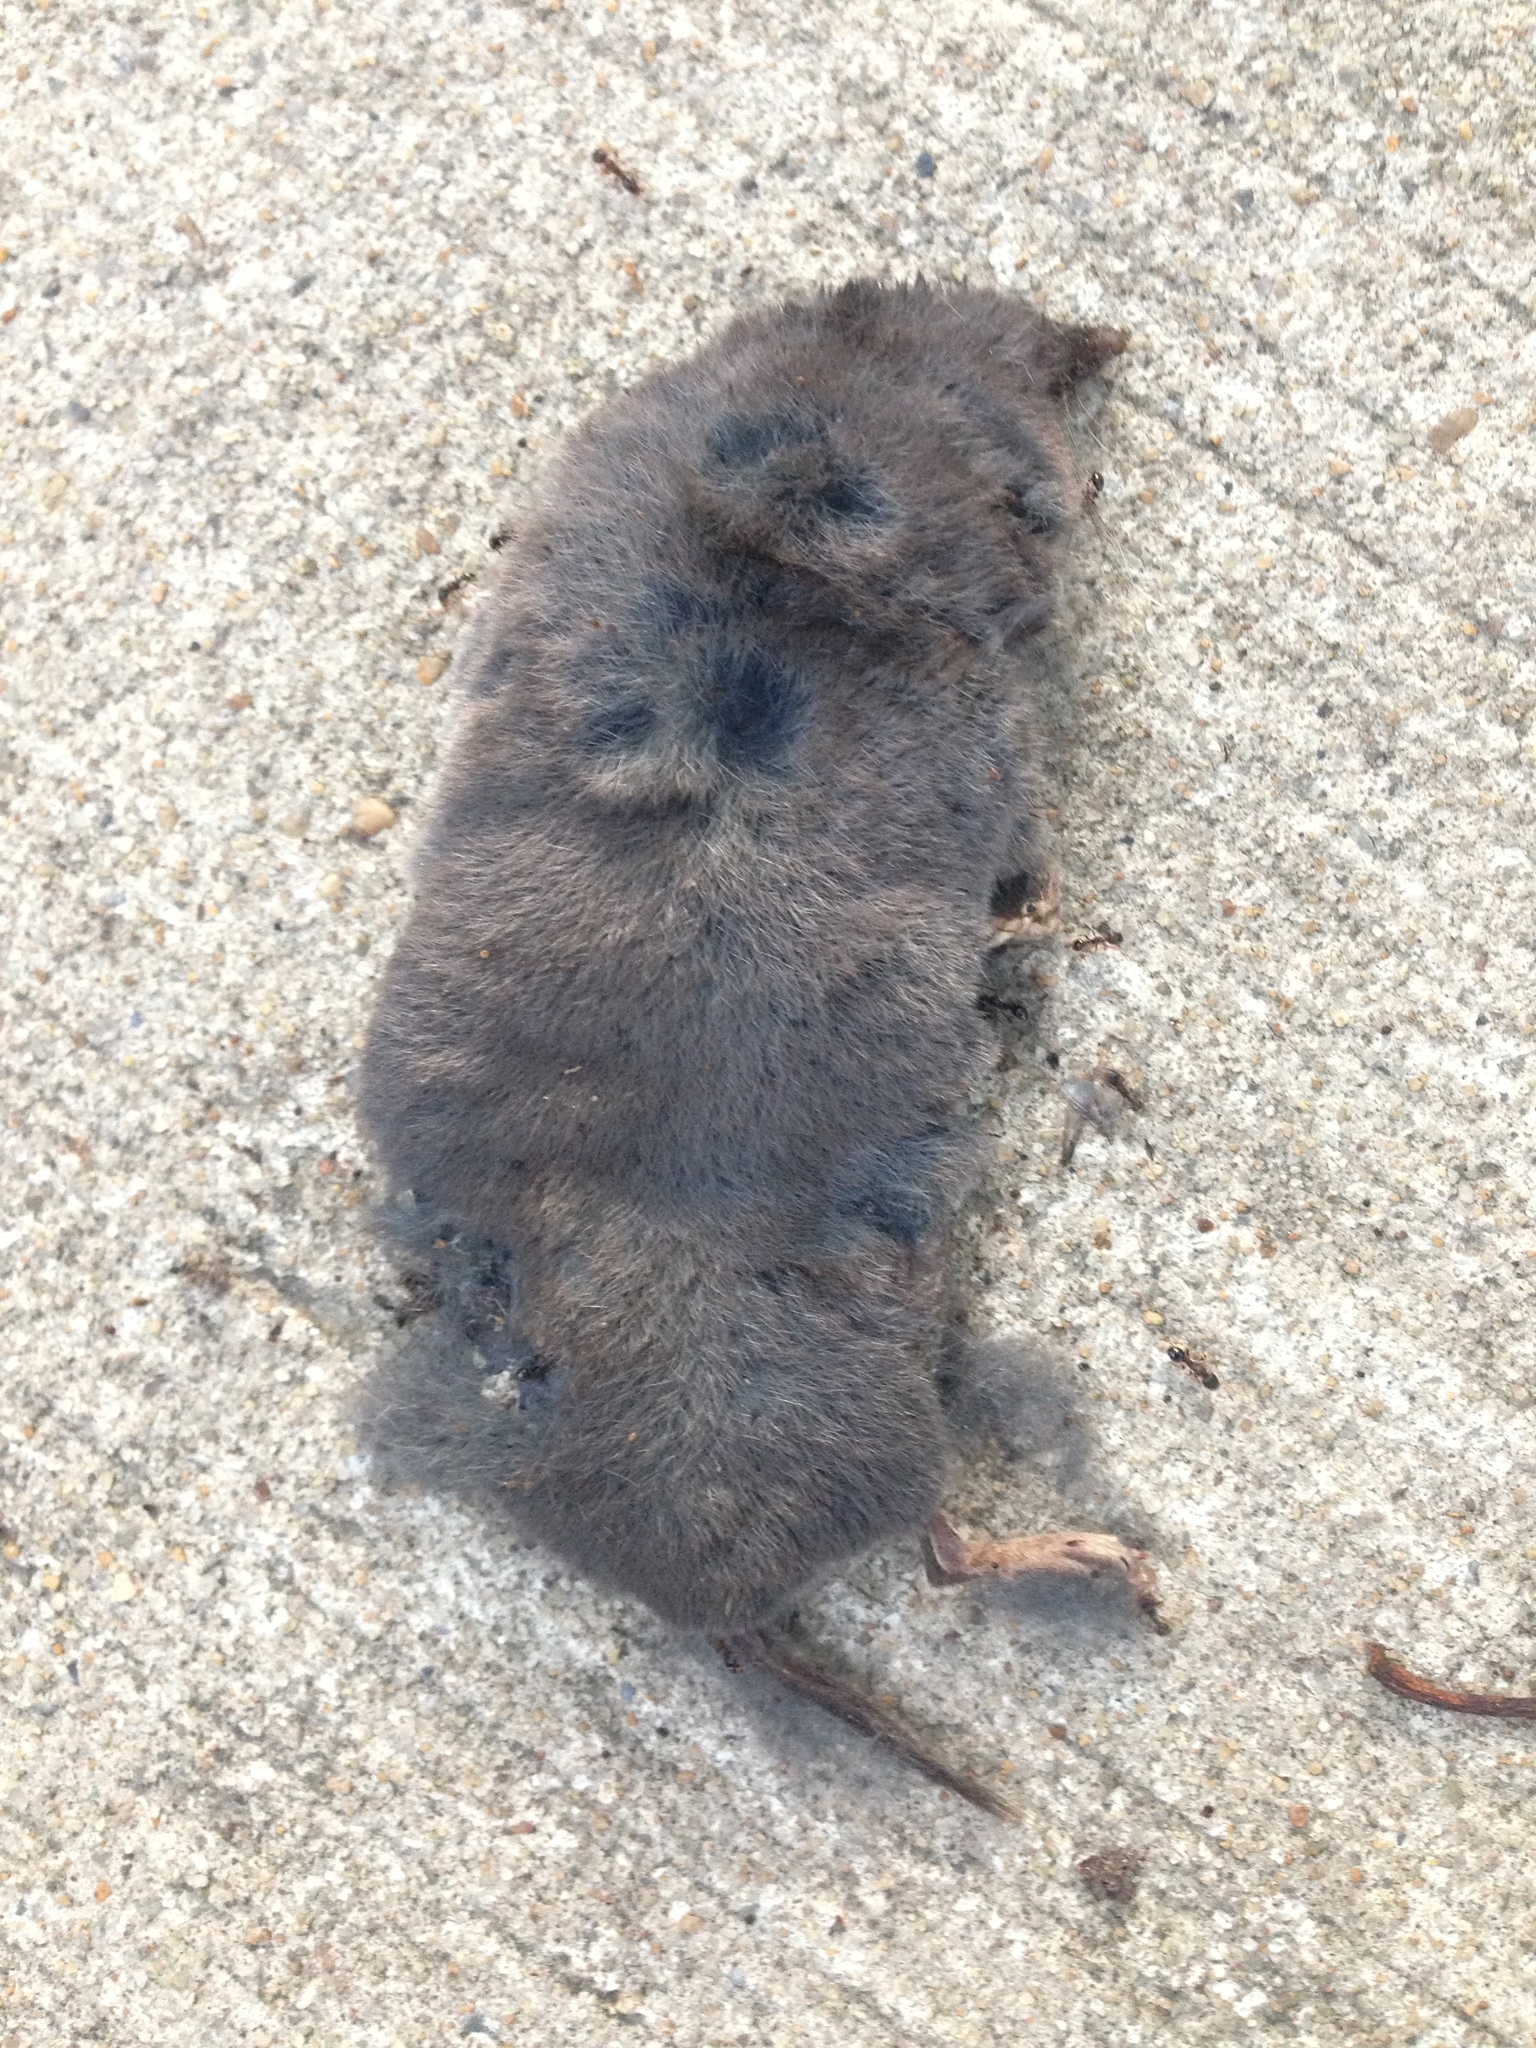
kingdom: Animalia
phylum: Chordata
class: Mammalia
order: Soricomorpha
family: Soricidae
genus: Blarina
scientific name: Blarina brevicauda
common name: Northern short-tailed shrew
